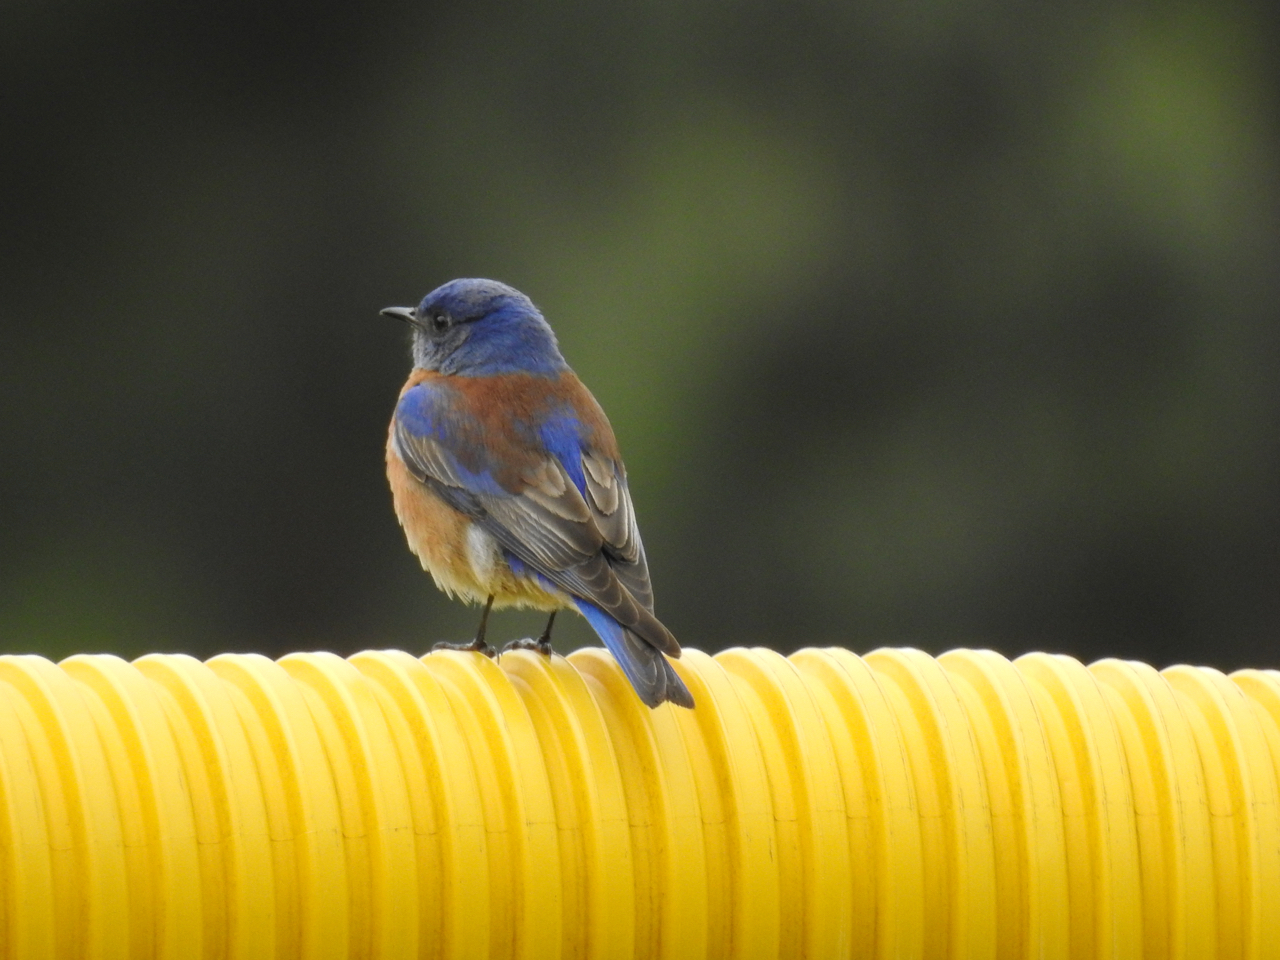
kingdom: Animalia
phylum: Chordata
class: Aves
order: Passeriformes
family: Turdidae
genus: Sialia
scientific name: Sialia mexicana
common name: Western bluebird
